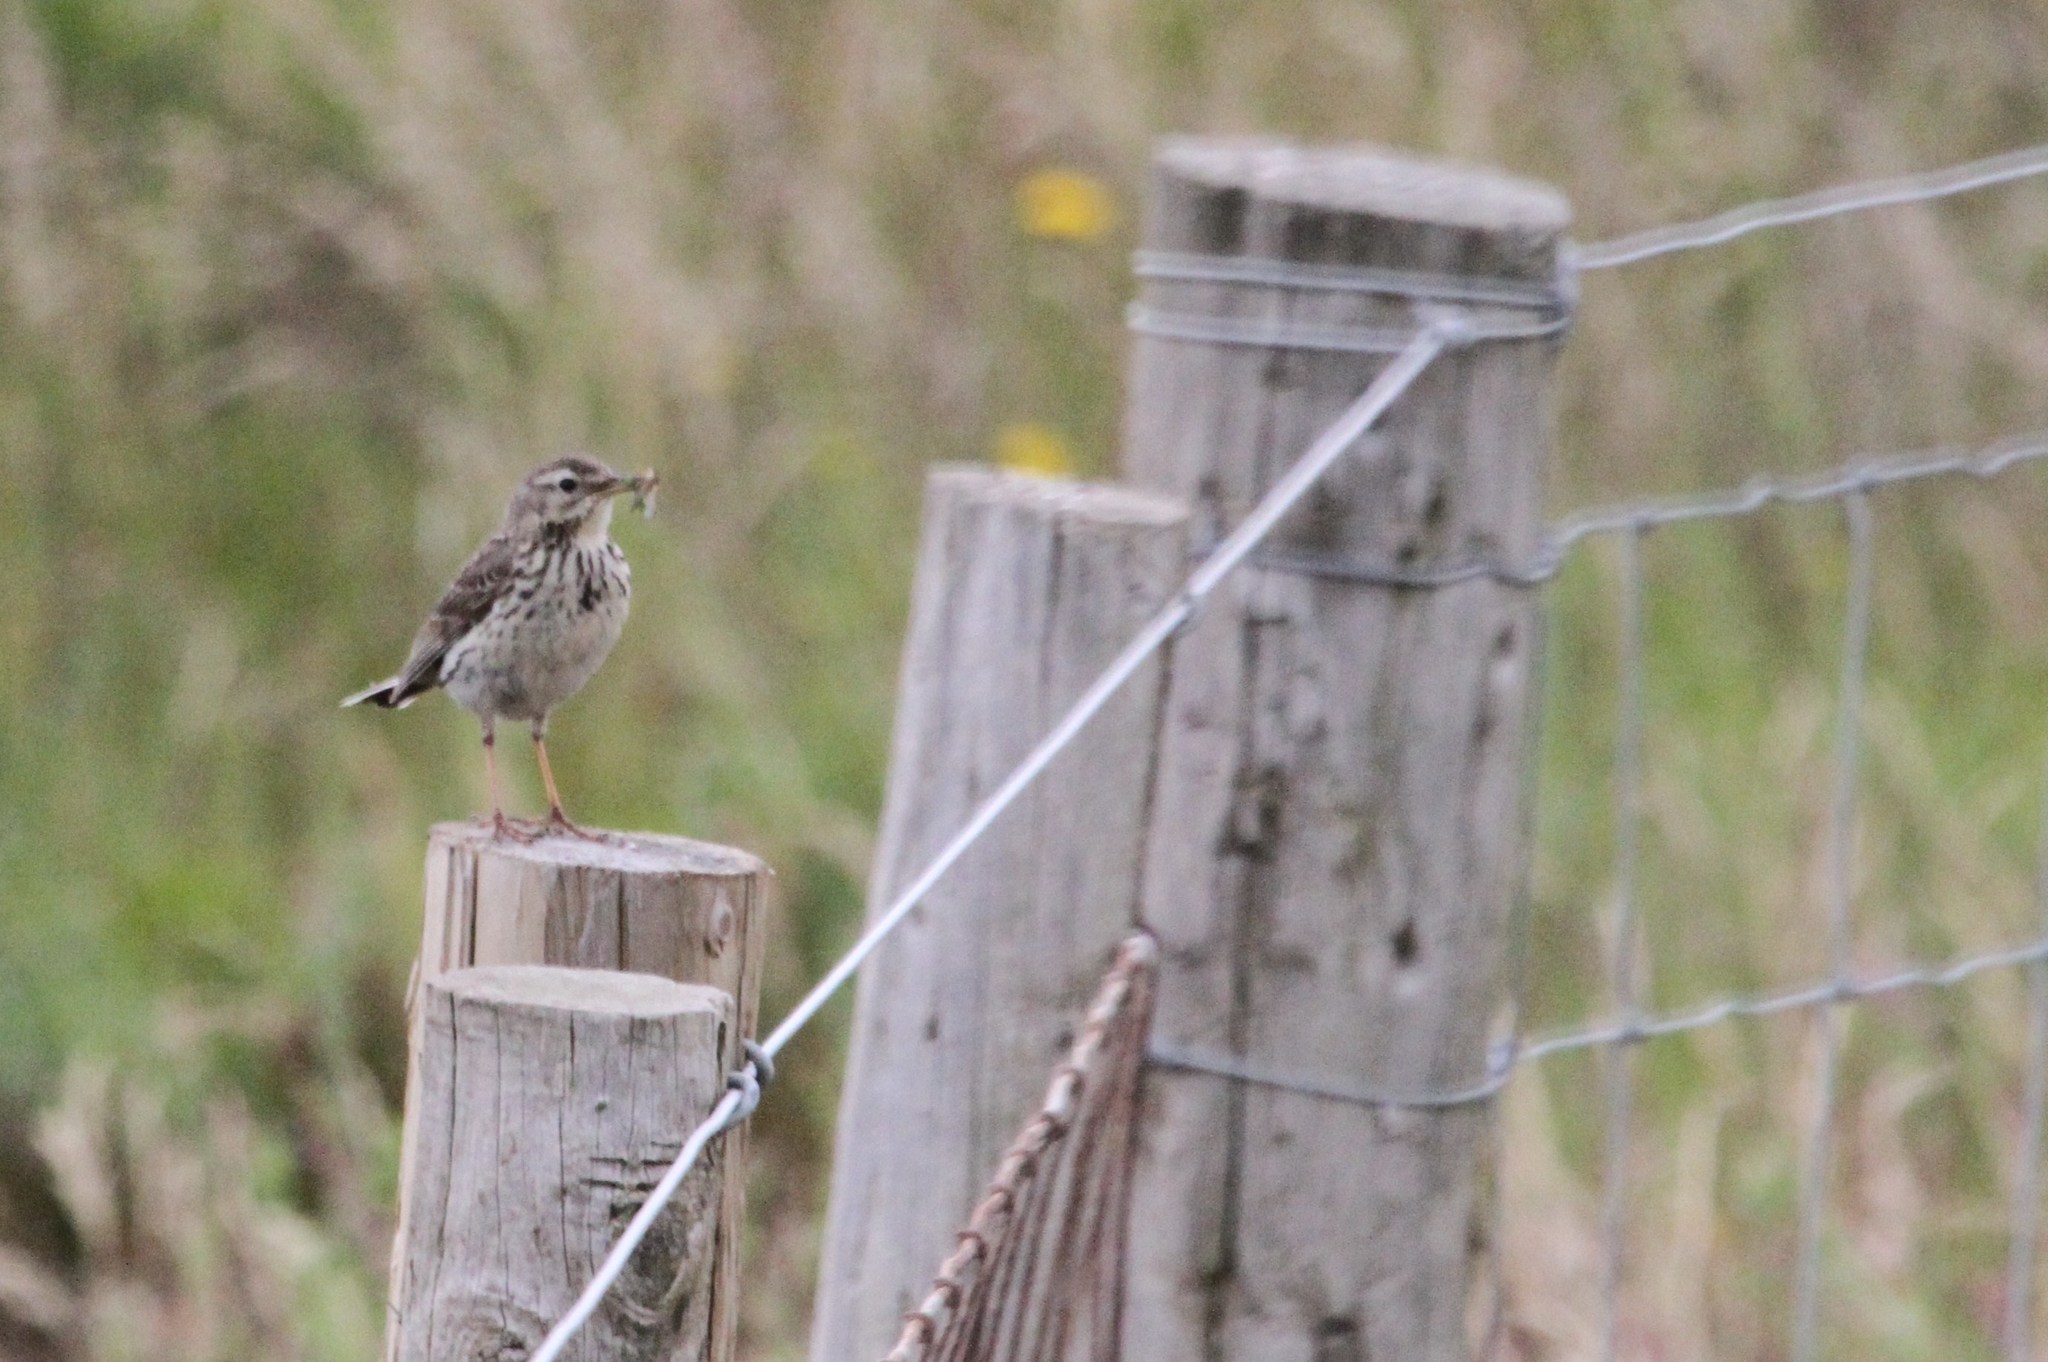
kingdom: Animalia
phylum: Chordata
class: Aves
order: Passeriformes
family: Motacillidae
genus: Anthus
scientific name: Anthus pratensis
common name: Meadow pipit
